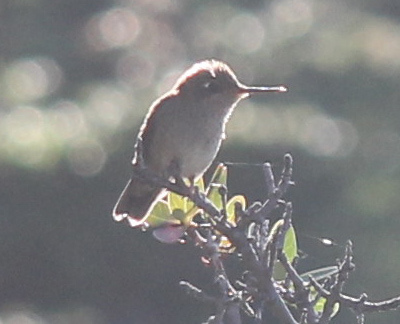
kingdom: Animalia
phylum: Chordata
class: Aves
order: Apodiformes
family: Trochilidae
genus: Sephanoides
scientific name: Sephanoides sephaniodes
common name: Green-backed firecrown
